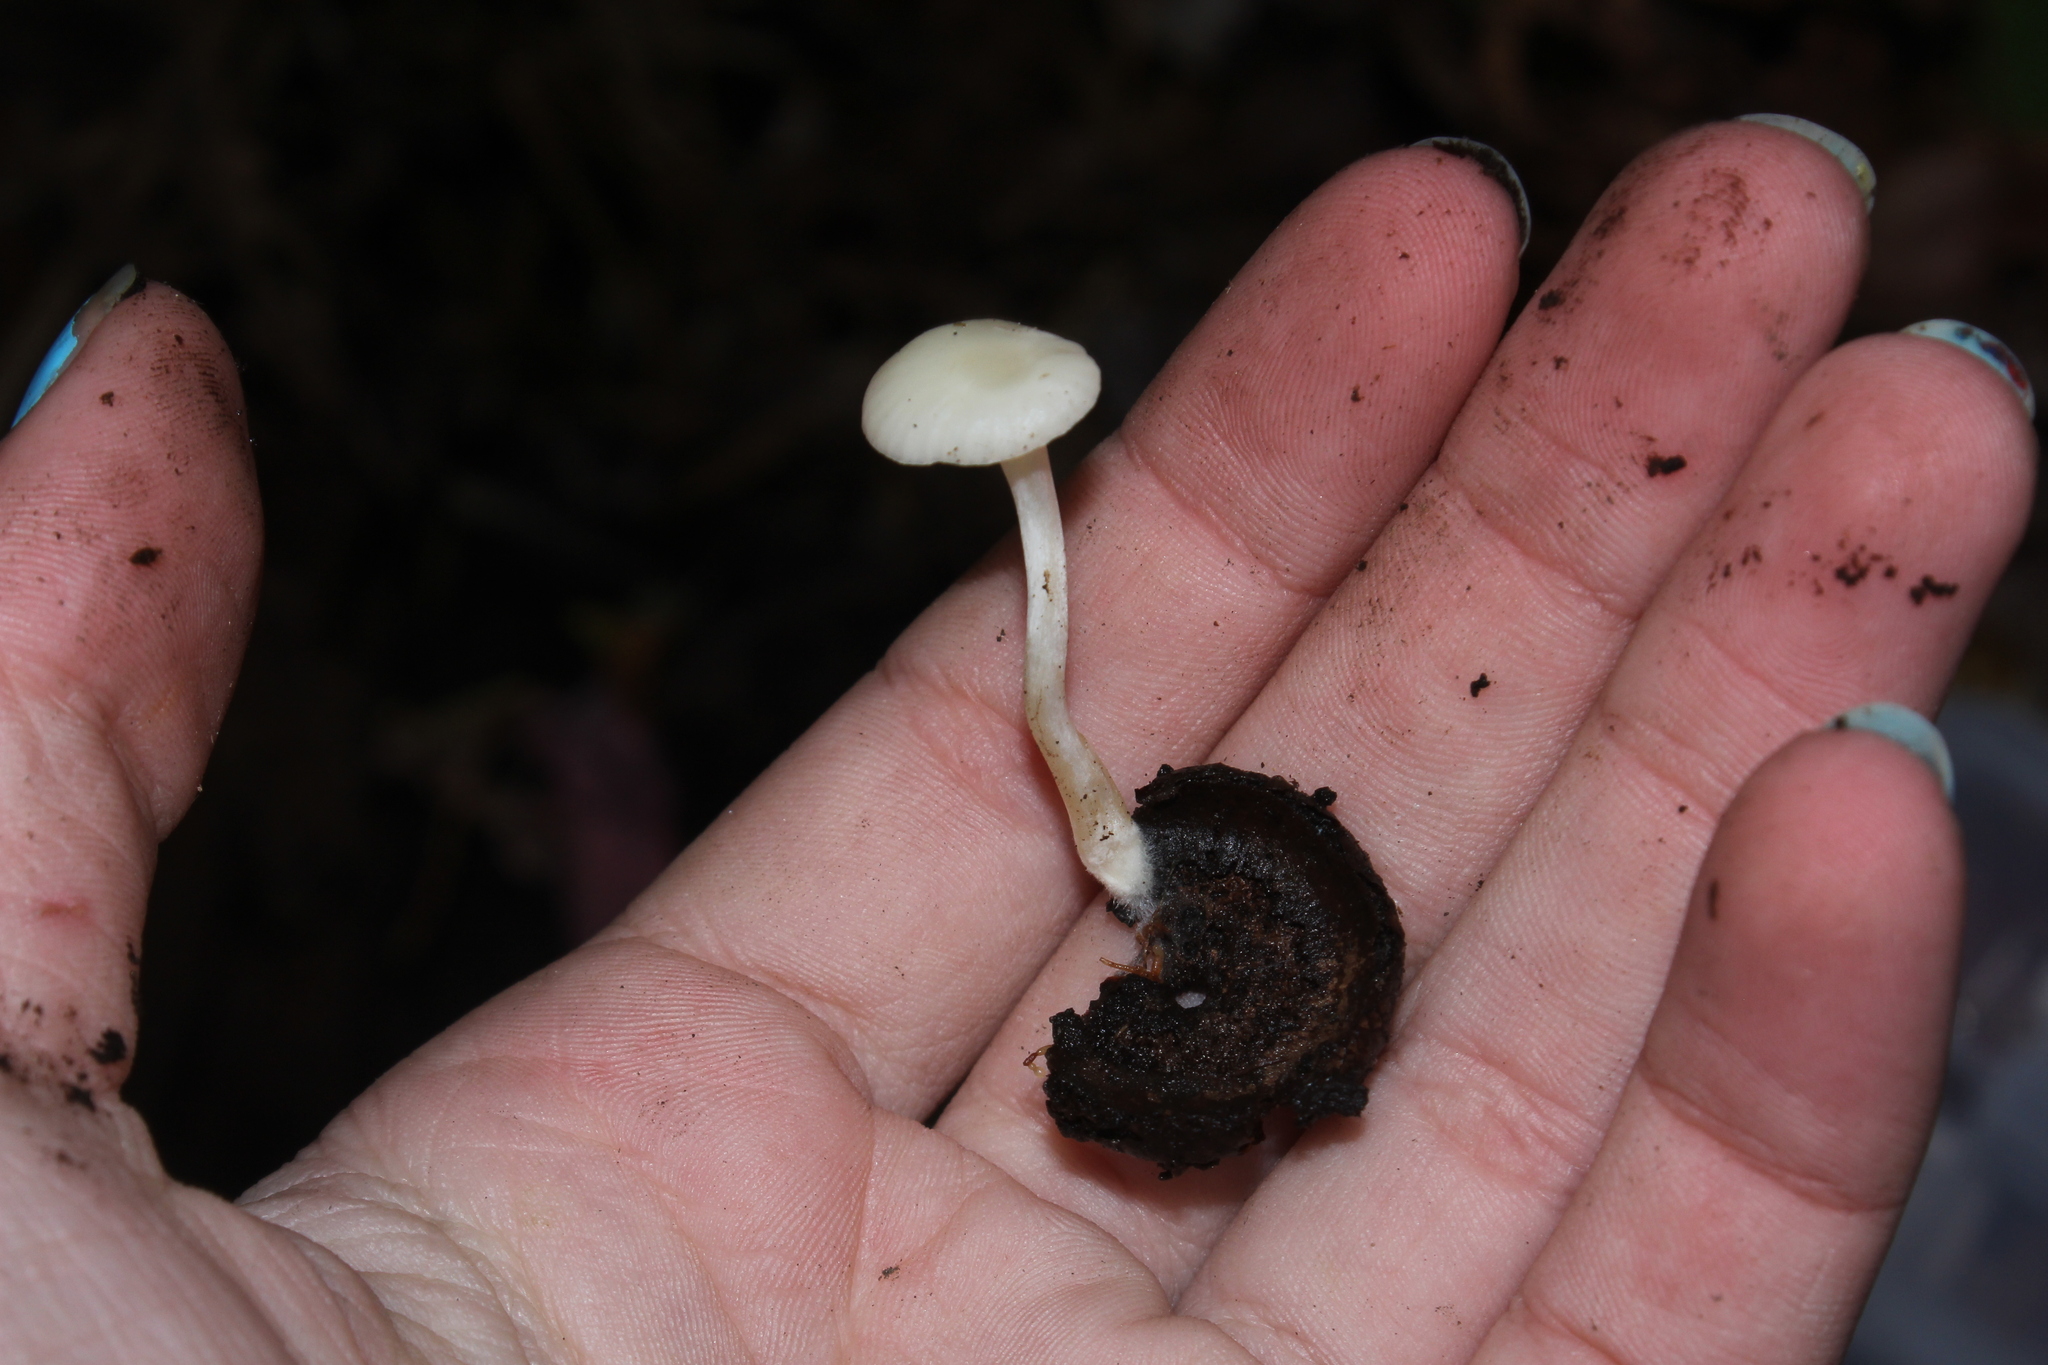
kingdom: Fungi
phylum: Basidiomycota
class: Agaricomycetes
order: Agaricales
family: Hygrophoraceae
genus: Cuphophyllus
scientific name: Cuphophyllus virgineus
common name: Snowy waxcap
